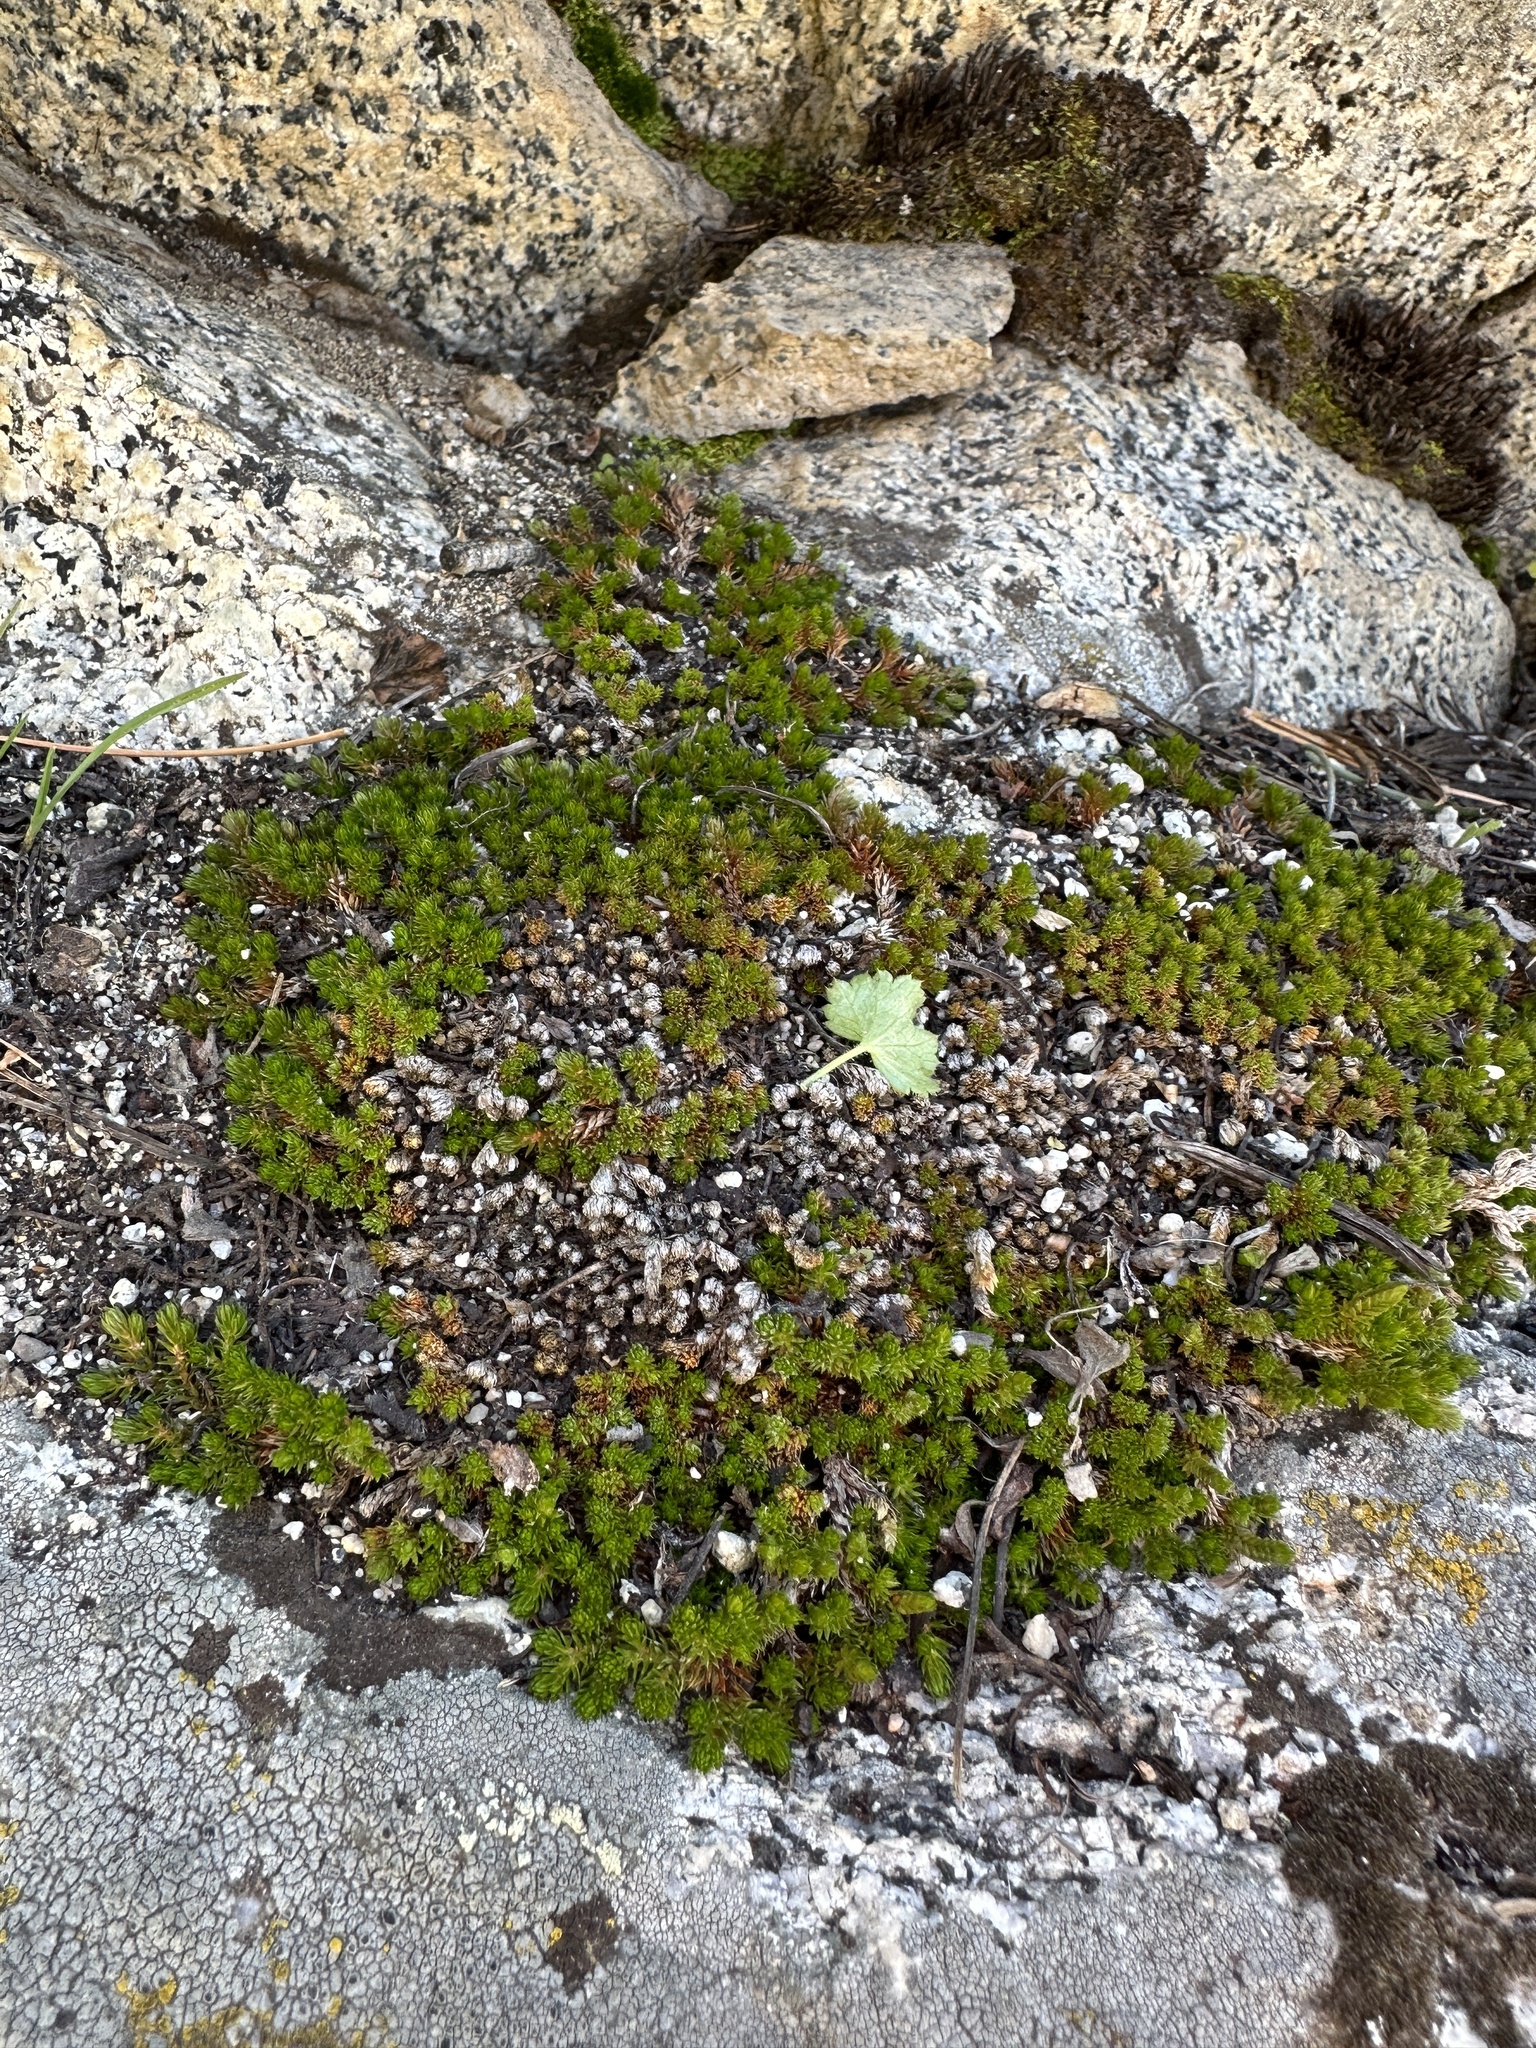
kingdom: Plantae
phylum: Tracheophyta
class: Lycopodiopsida
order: Selaginellales
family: Selaginellaceae
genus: Selaginella
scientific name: Selaginella watsonii
